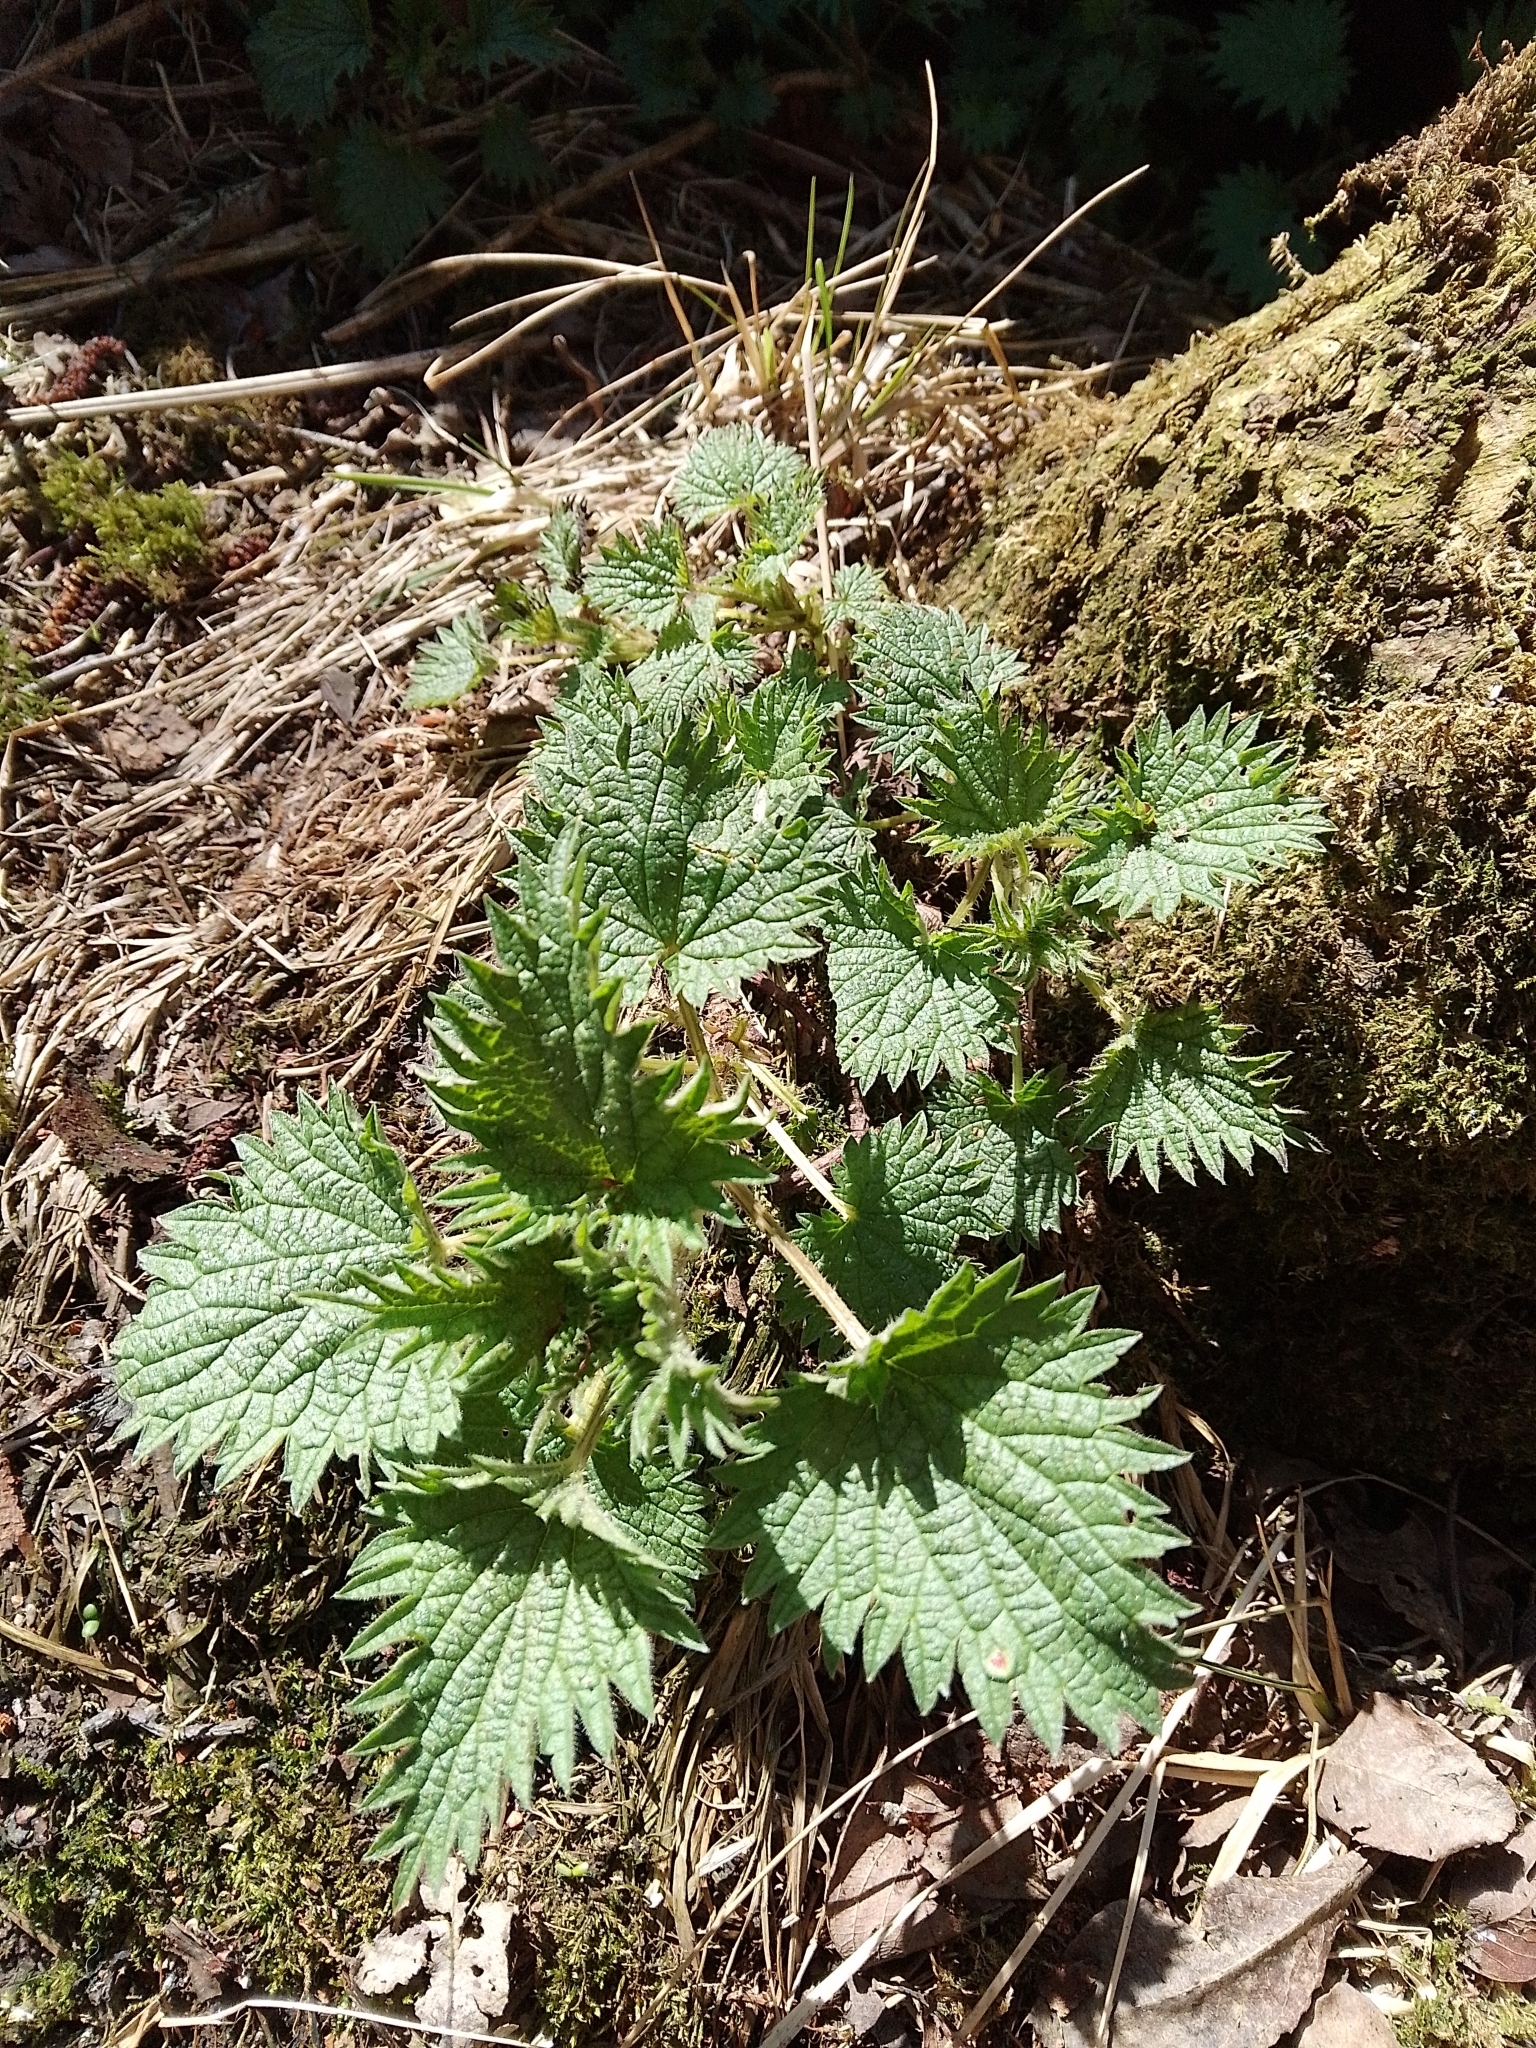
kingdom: Plantae
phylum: Tracheophyta
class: Magnoliopsida
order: Rosales
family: Urticaceae
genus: Urtica
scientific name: Urtica dioica
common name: Common nettle
